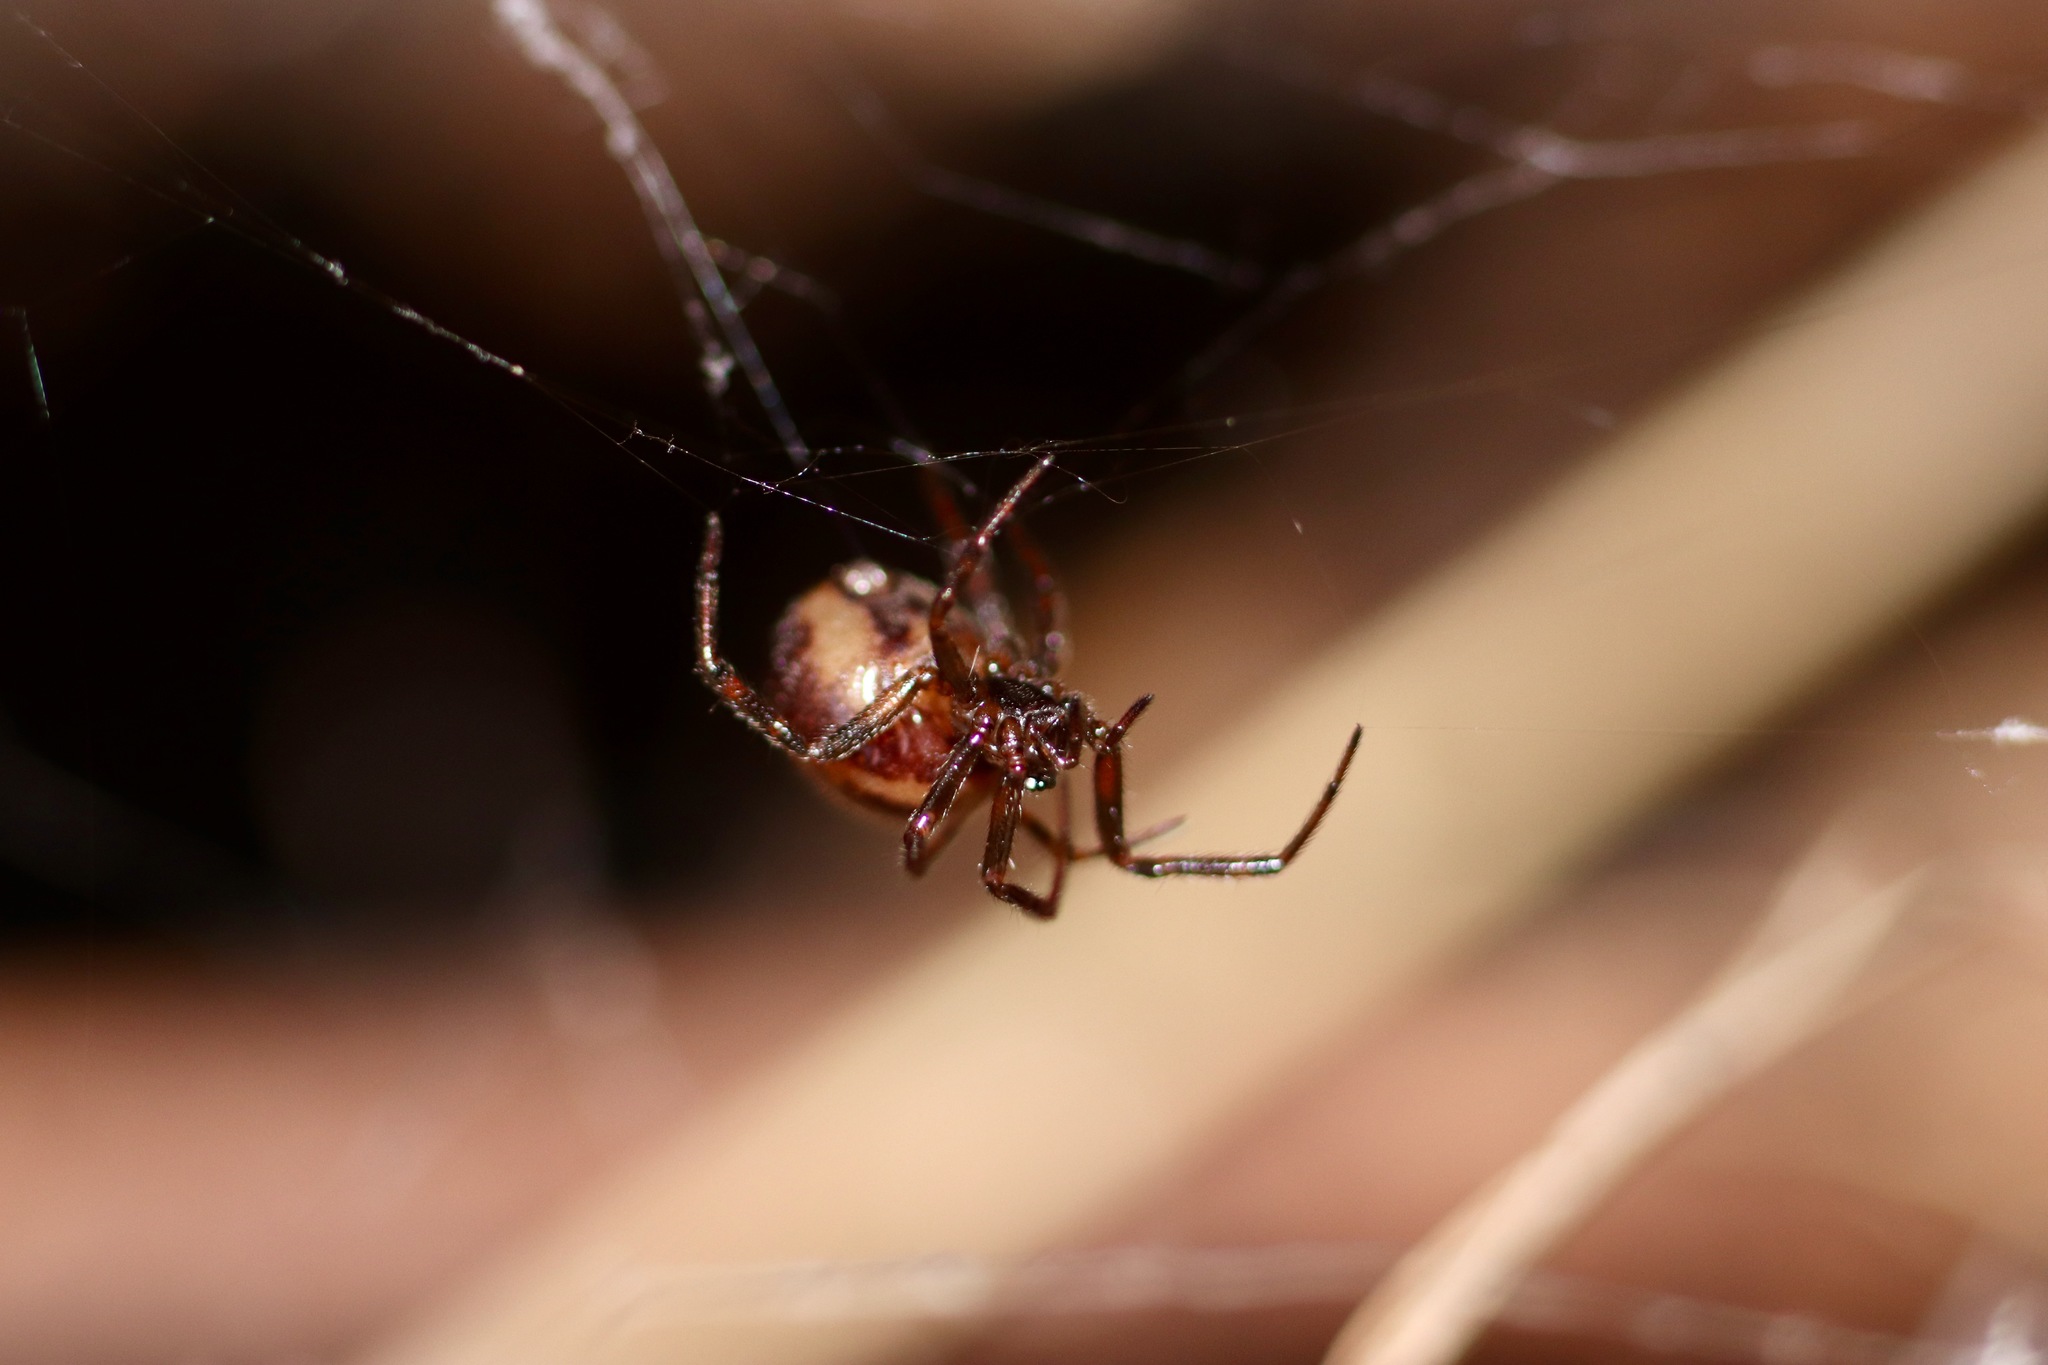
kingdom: Animalia
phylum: Arthropoda
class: Arachnida
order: Araneae
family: Theridiidae
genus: Steatoda
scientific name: Steatoda borealis
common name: Boreal combfoot
